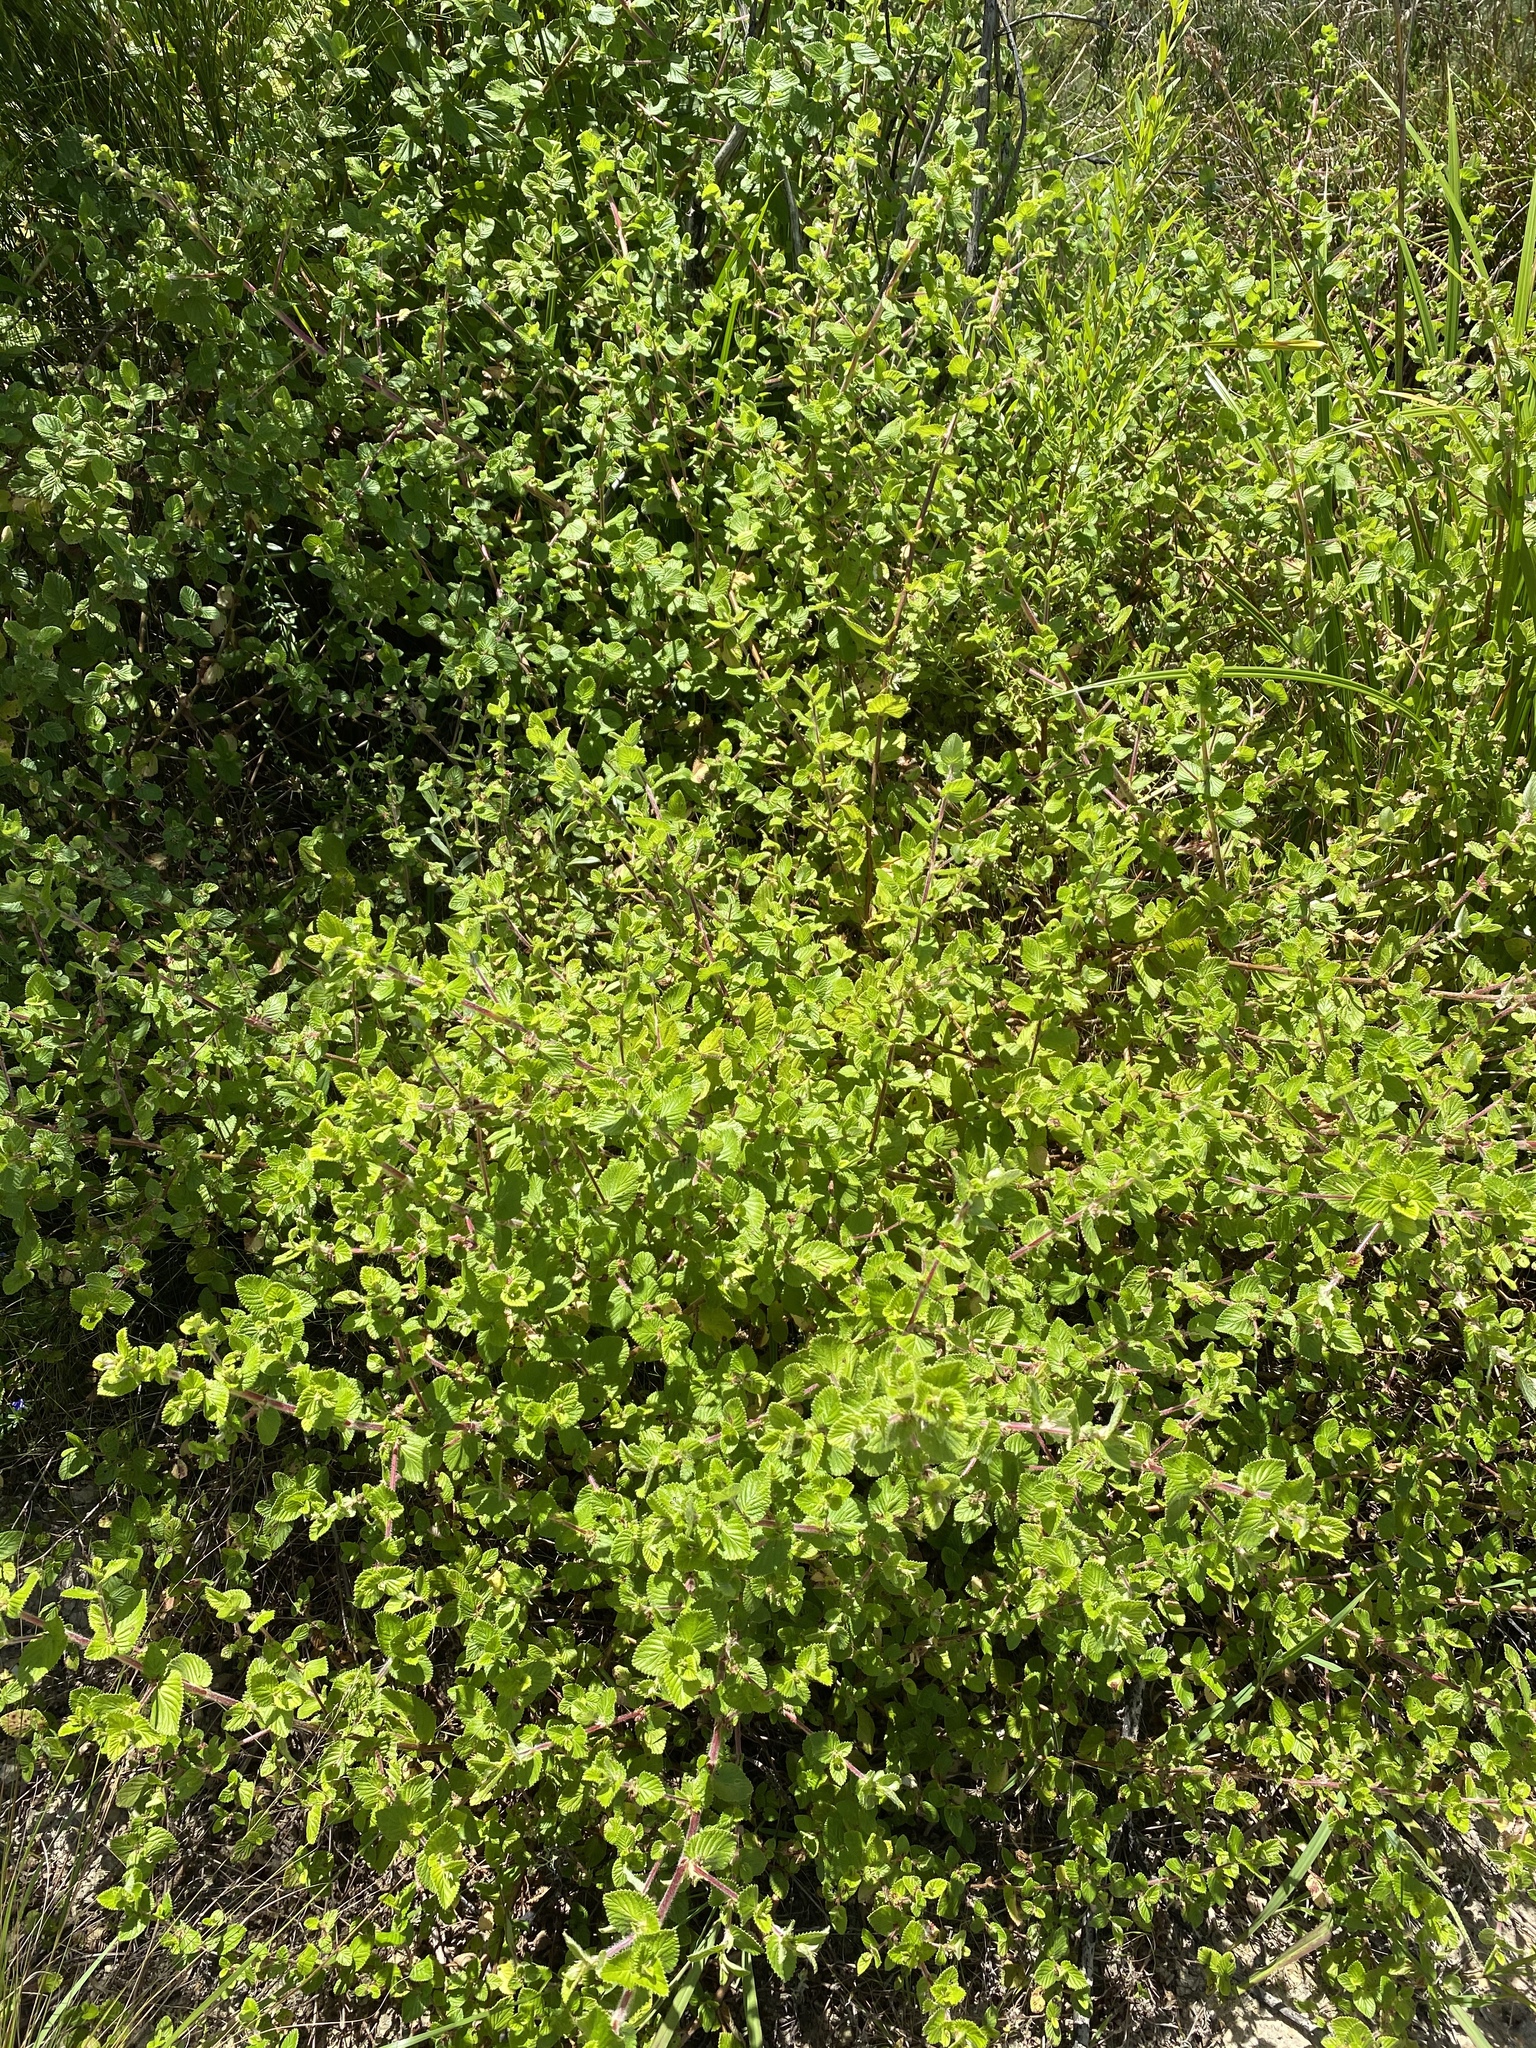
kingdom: Plantae
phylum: Tracheophyta
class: Magnoliopsida
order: Rosales
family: Rosaceae
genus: Cliffortia
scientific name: Cliffortia odorata
